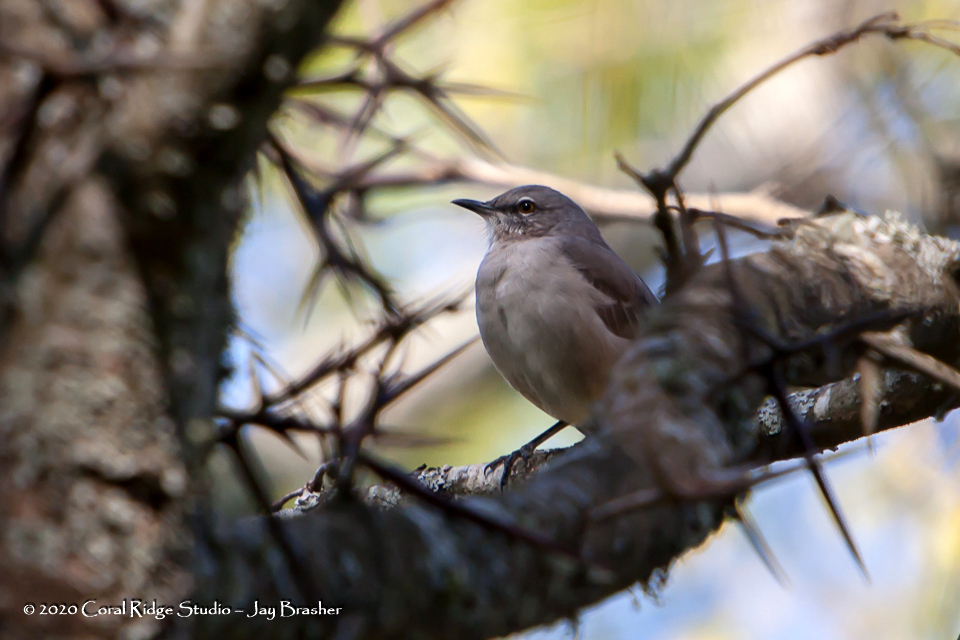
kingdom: Animalia
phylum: Chordata
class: Aves
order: Passeriformes
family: Mimidae
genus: Mimus
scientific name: Mimus polyglottos
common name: Northern mockingbird
